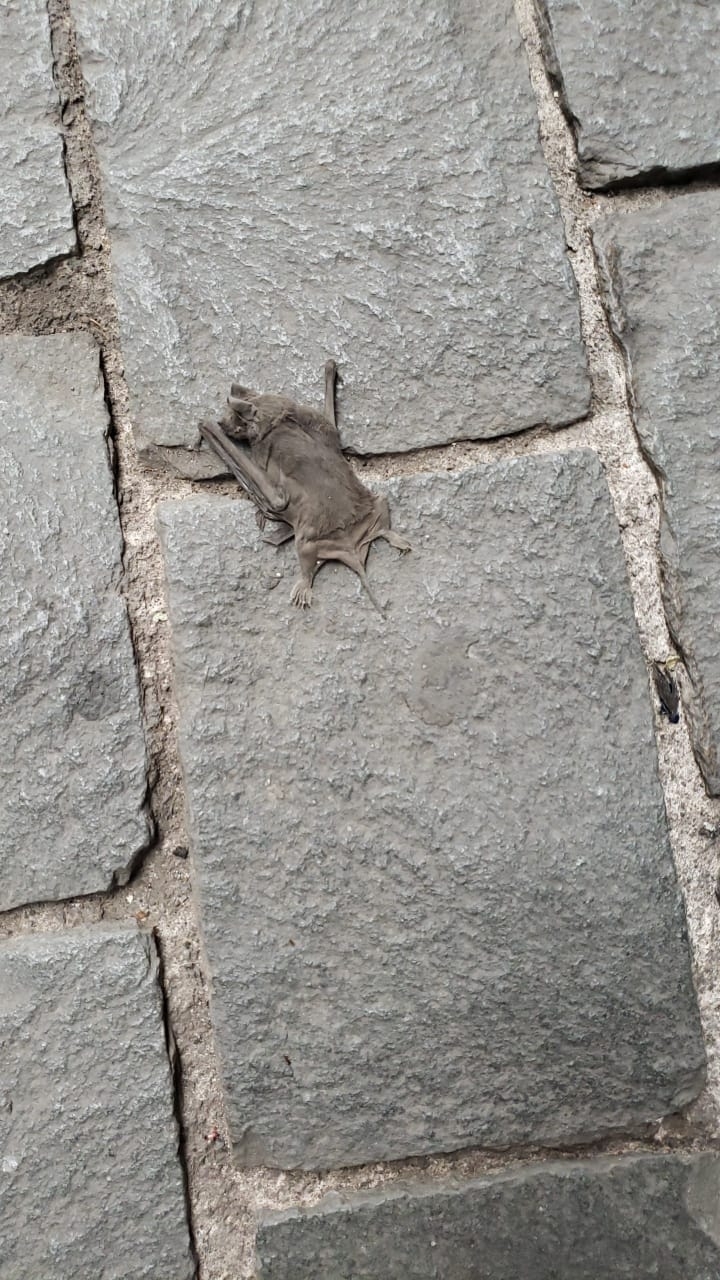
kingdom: Animalia
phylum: Chordata
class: Mammalia
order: Chiroptera
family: Molossidae
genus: Tadarida
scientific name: Tadarida brasiliensis
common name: Mexican free-tailed bat
